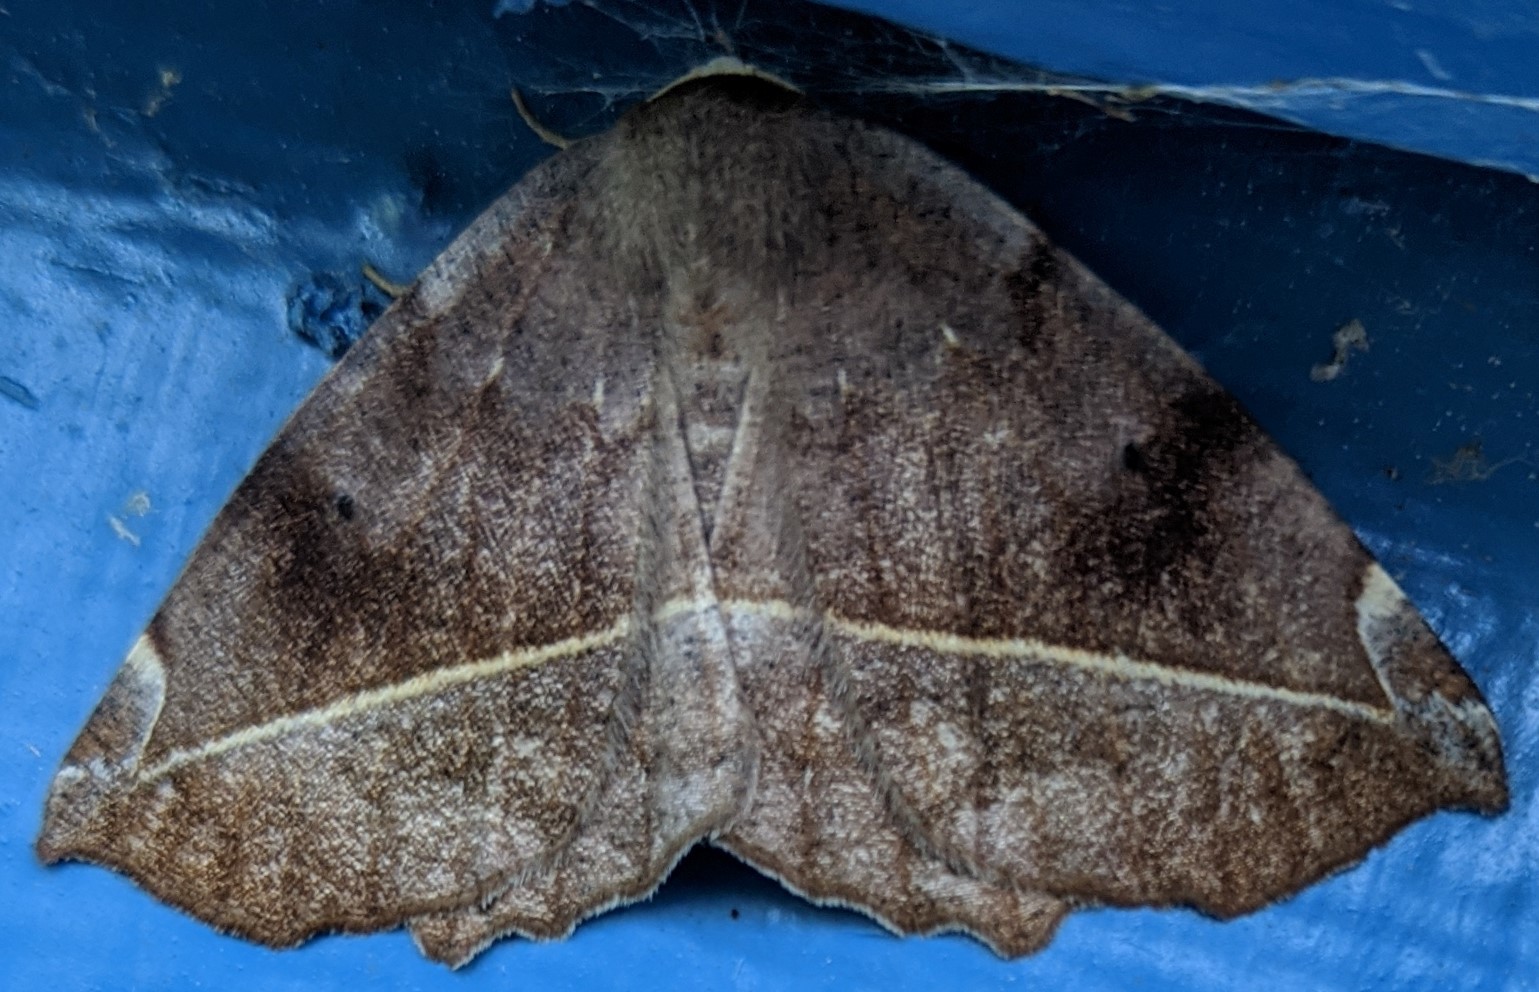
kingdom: Animalia
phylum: Arthropoda
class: Insecta
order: Lepidoptera
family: Geometridae
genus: Eutrapela
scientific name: Eutrapela clemataria
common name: Curved-toothed geometer
